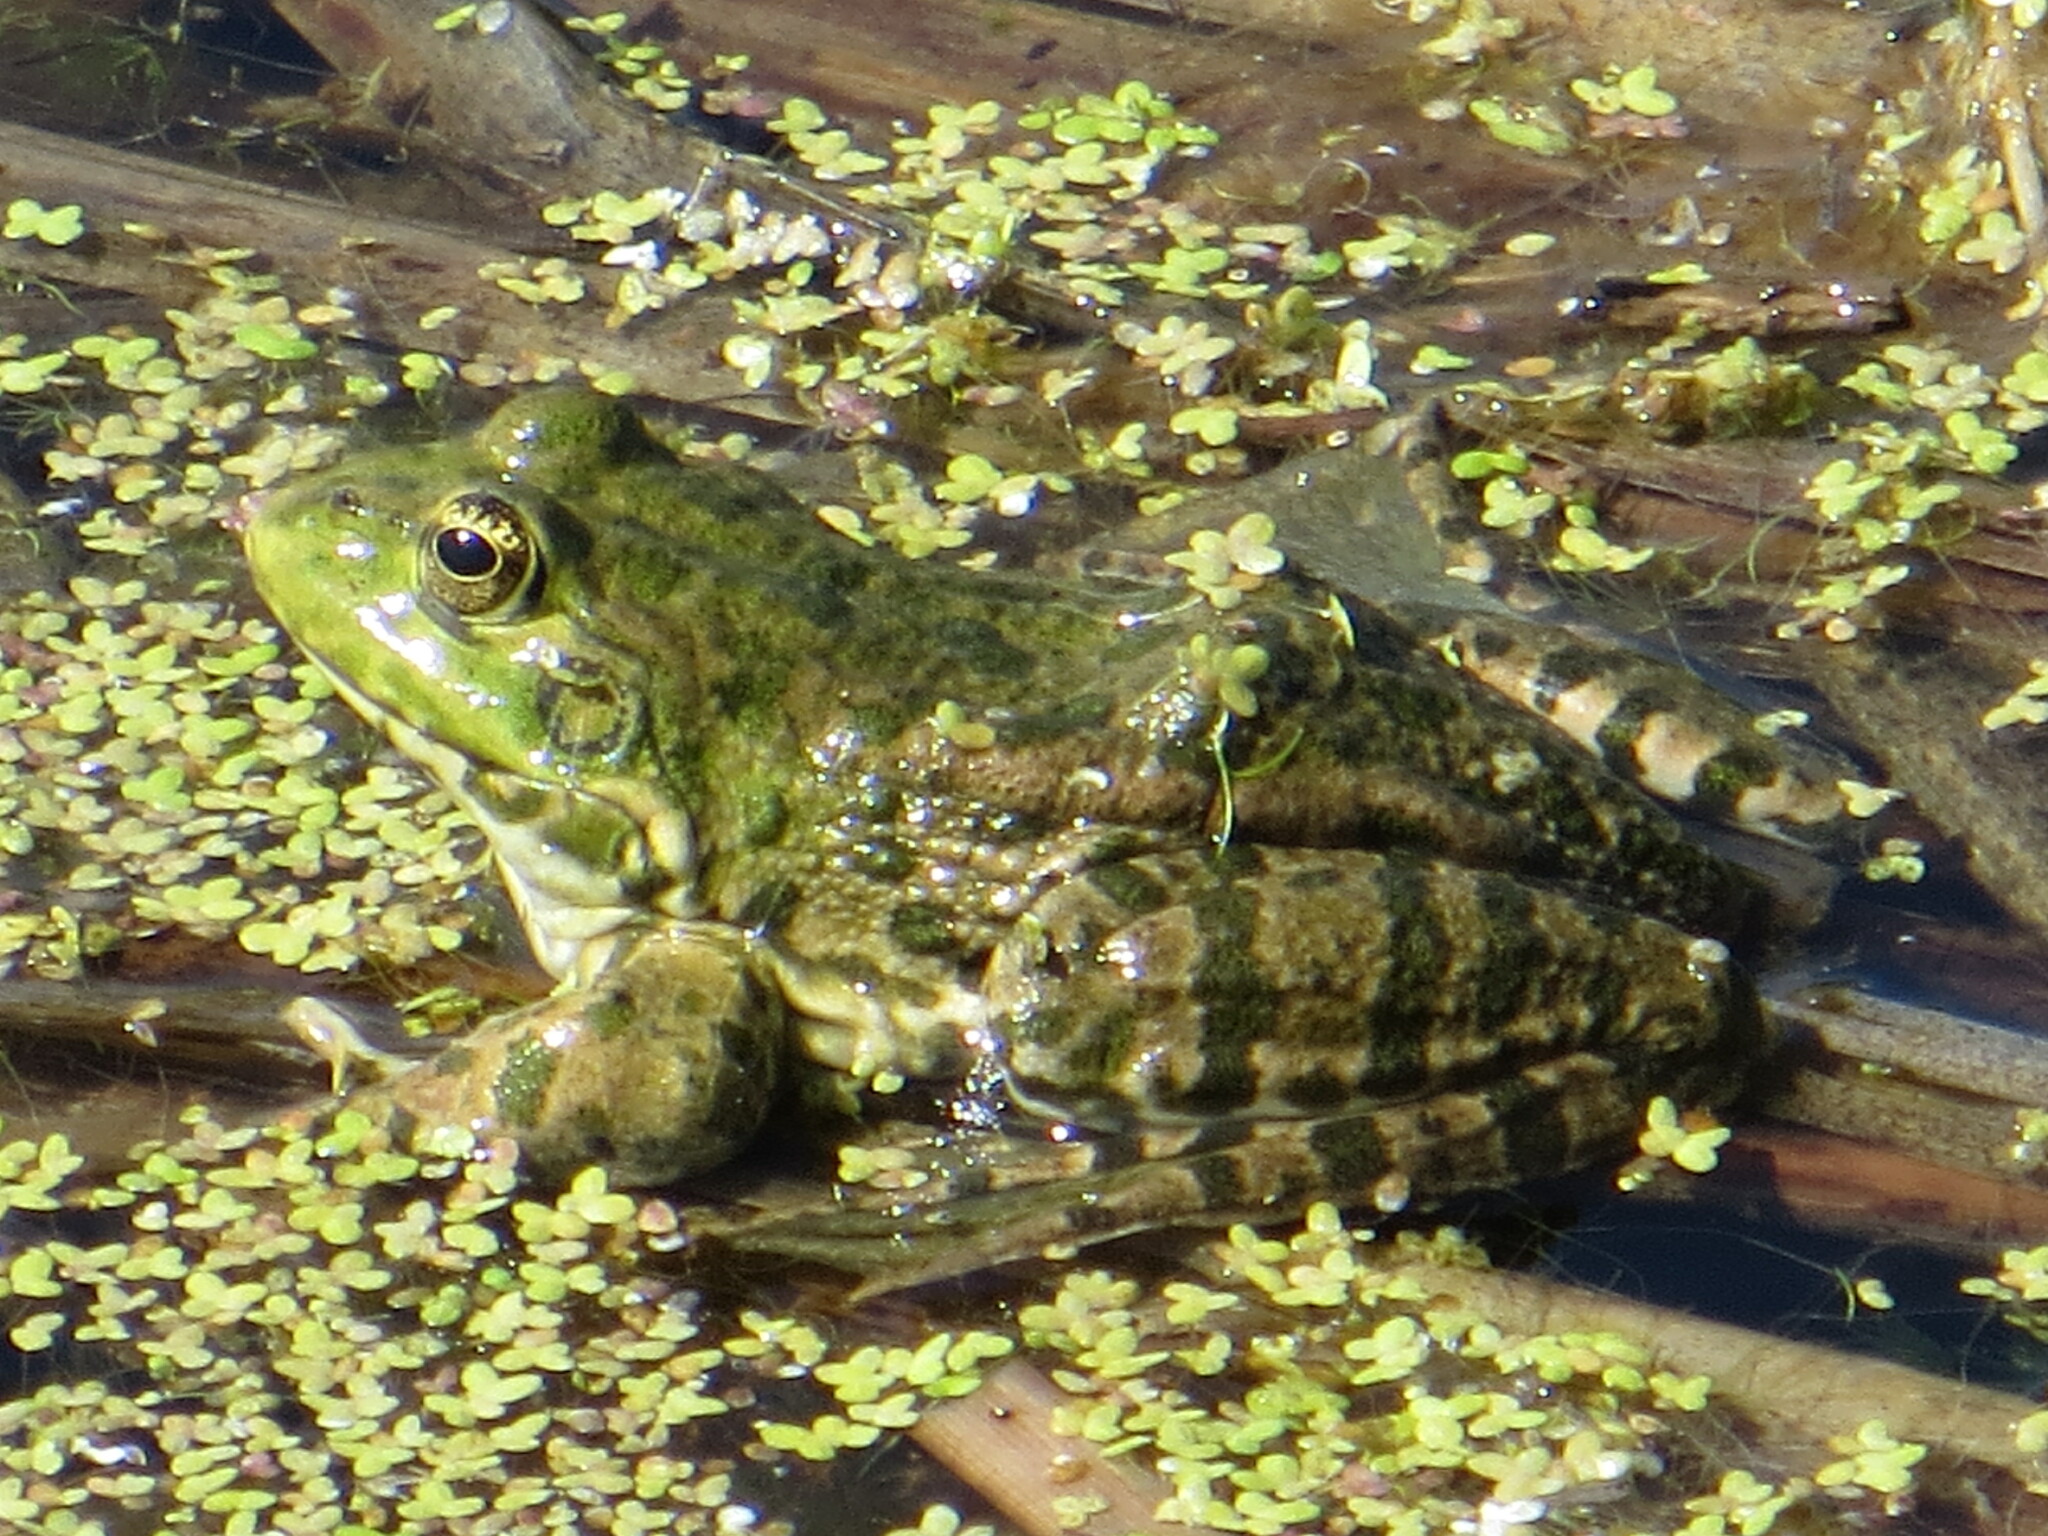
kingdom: Animalia
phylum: Chordata
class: Amphibia
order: Anura
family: Ranidae
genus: Pelophylax
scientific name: Pelophylax ridibundus
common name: Marsh frog
